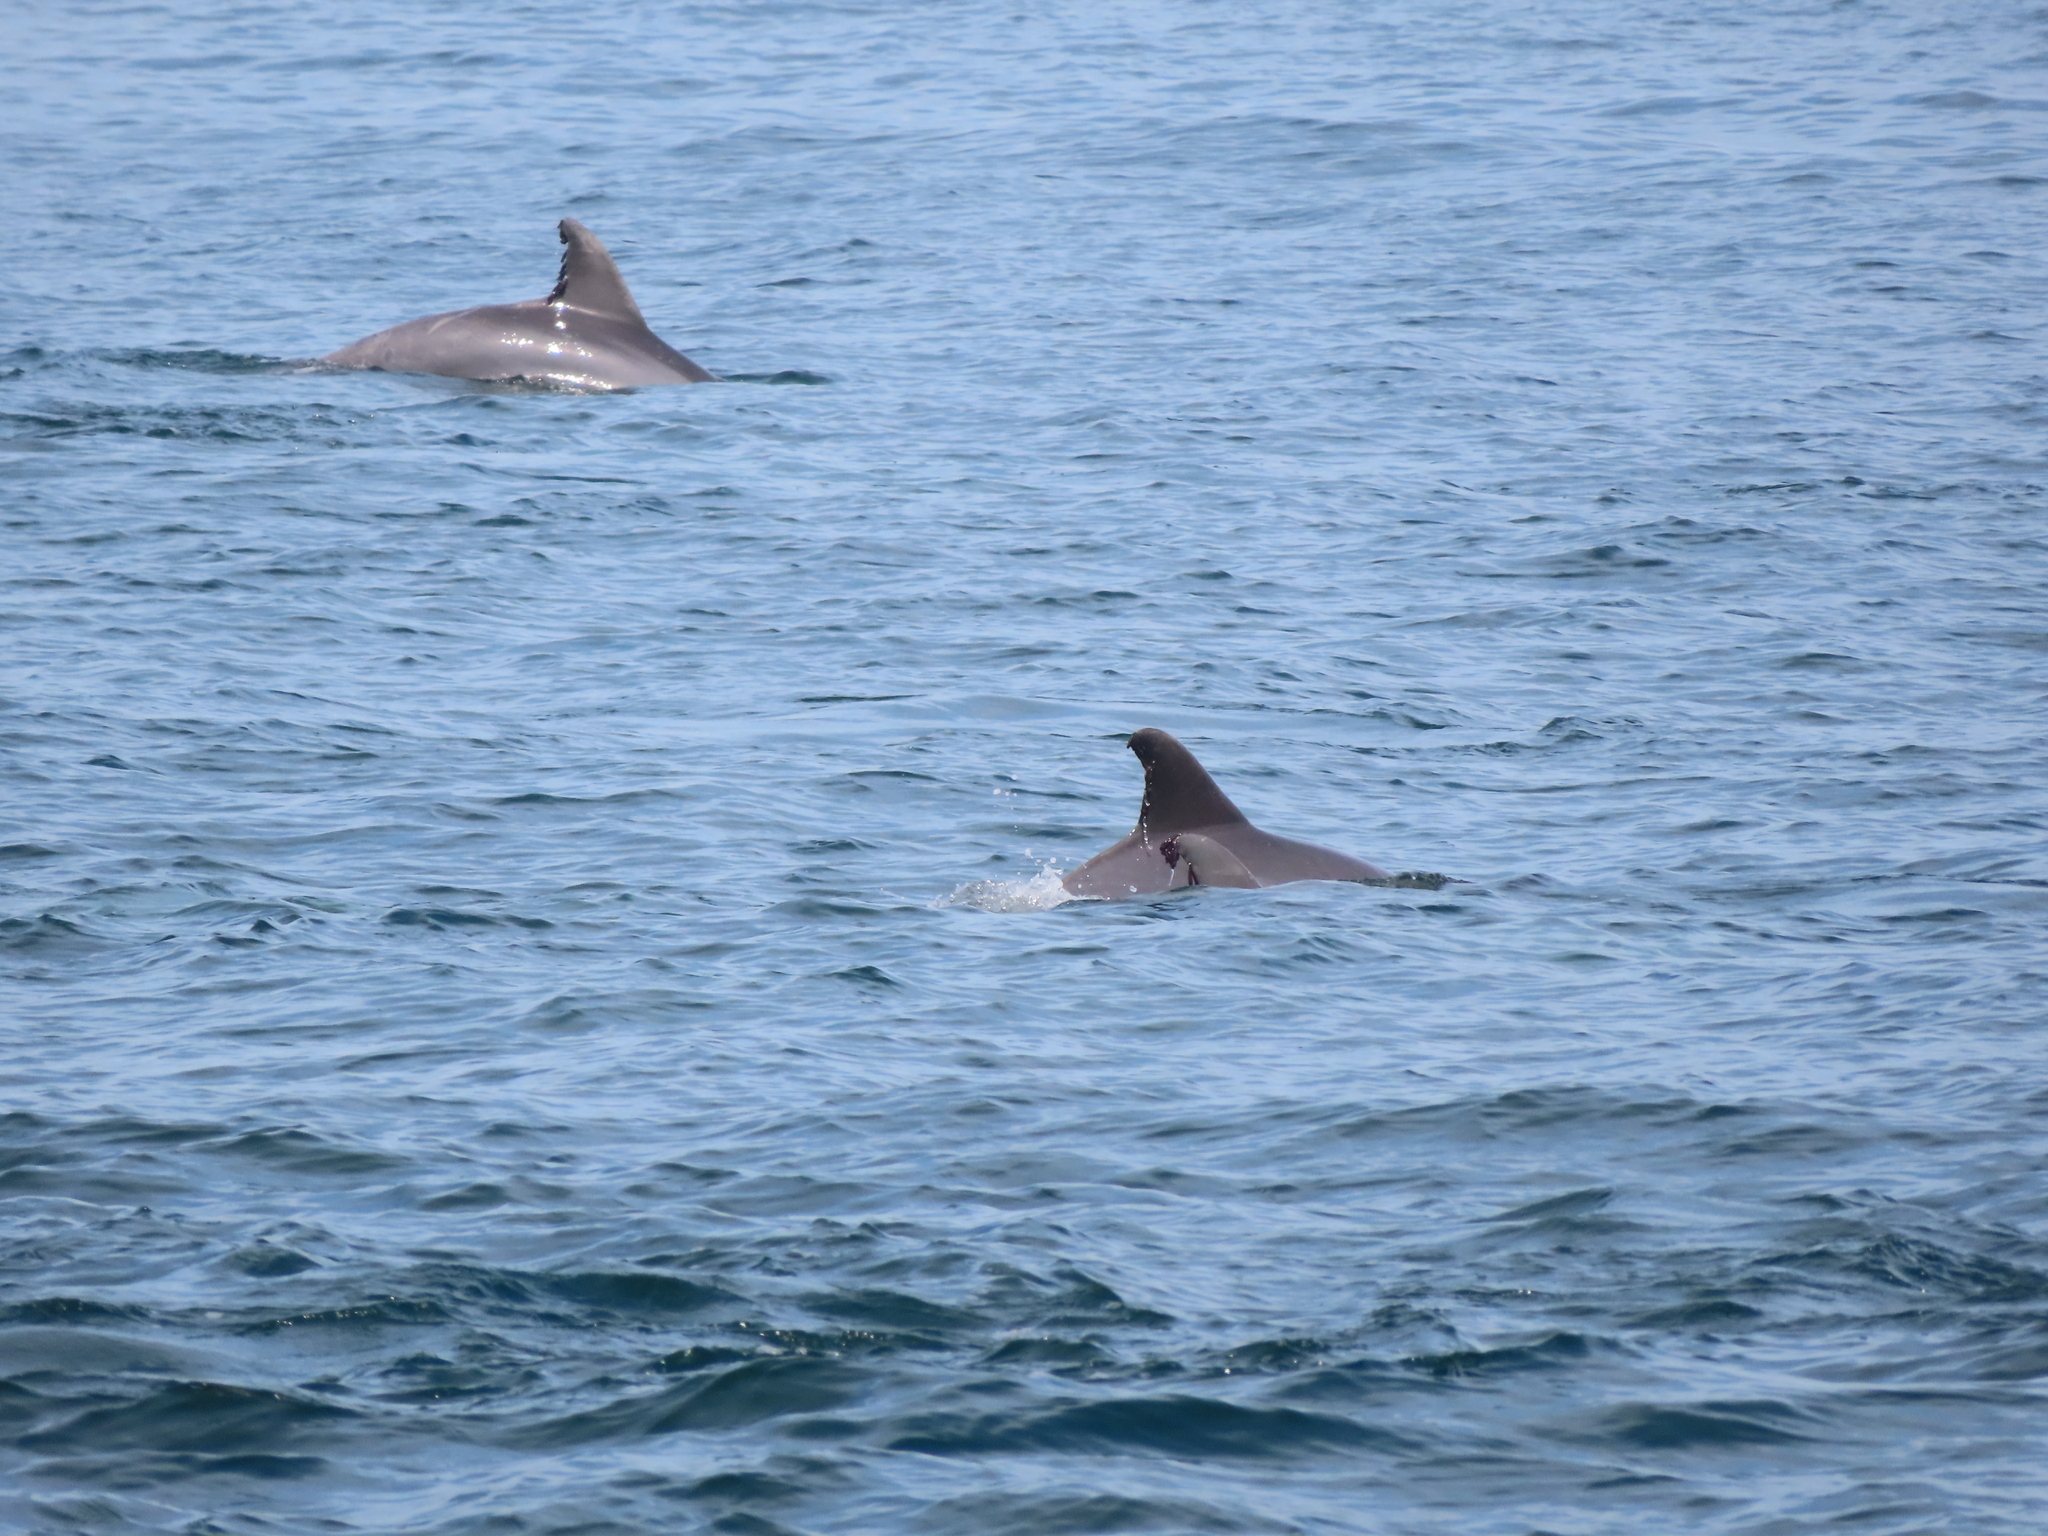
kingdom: Animalia
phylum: Chordata
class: Mammalia
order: Cetacea
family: Delphinidae
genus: Tursiops
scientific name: Tursiops truncatus
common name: Bottlenose dolphin
